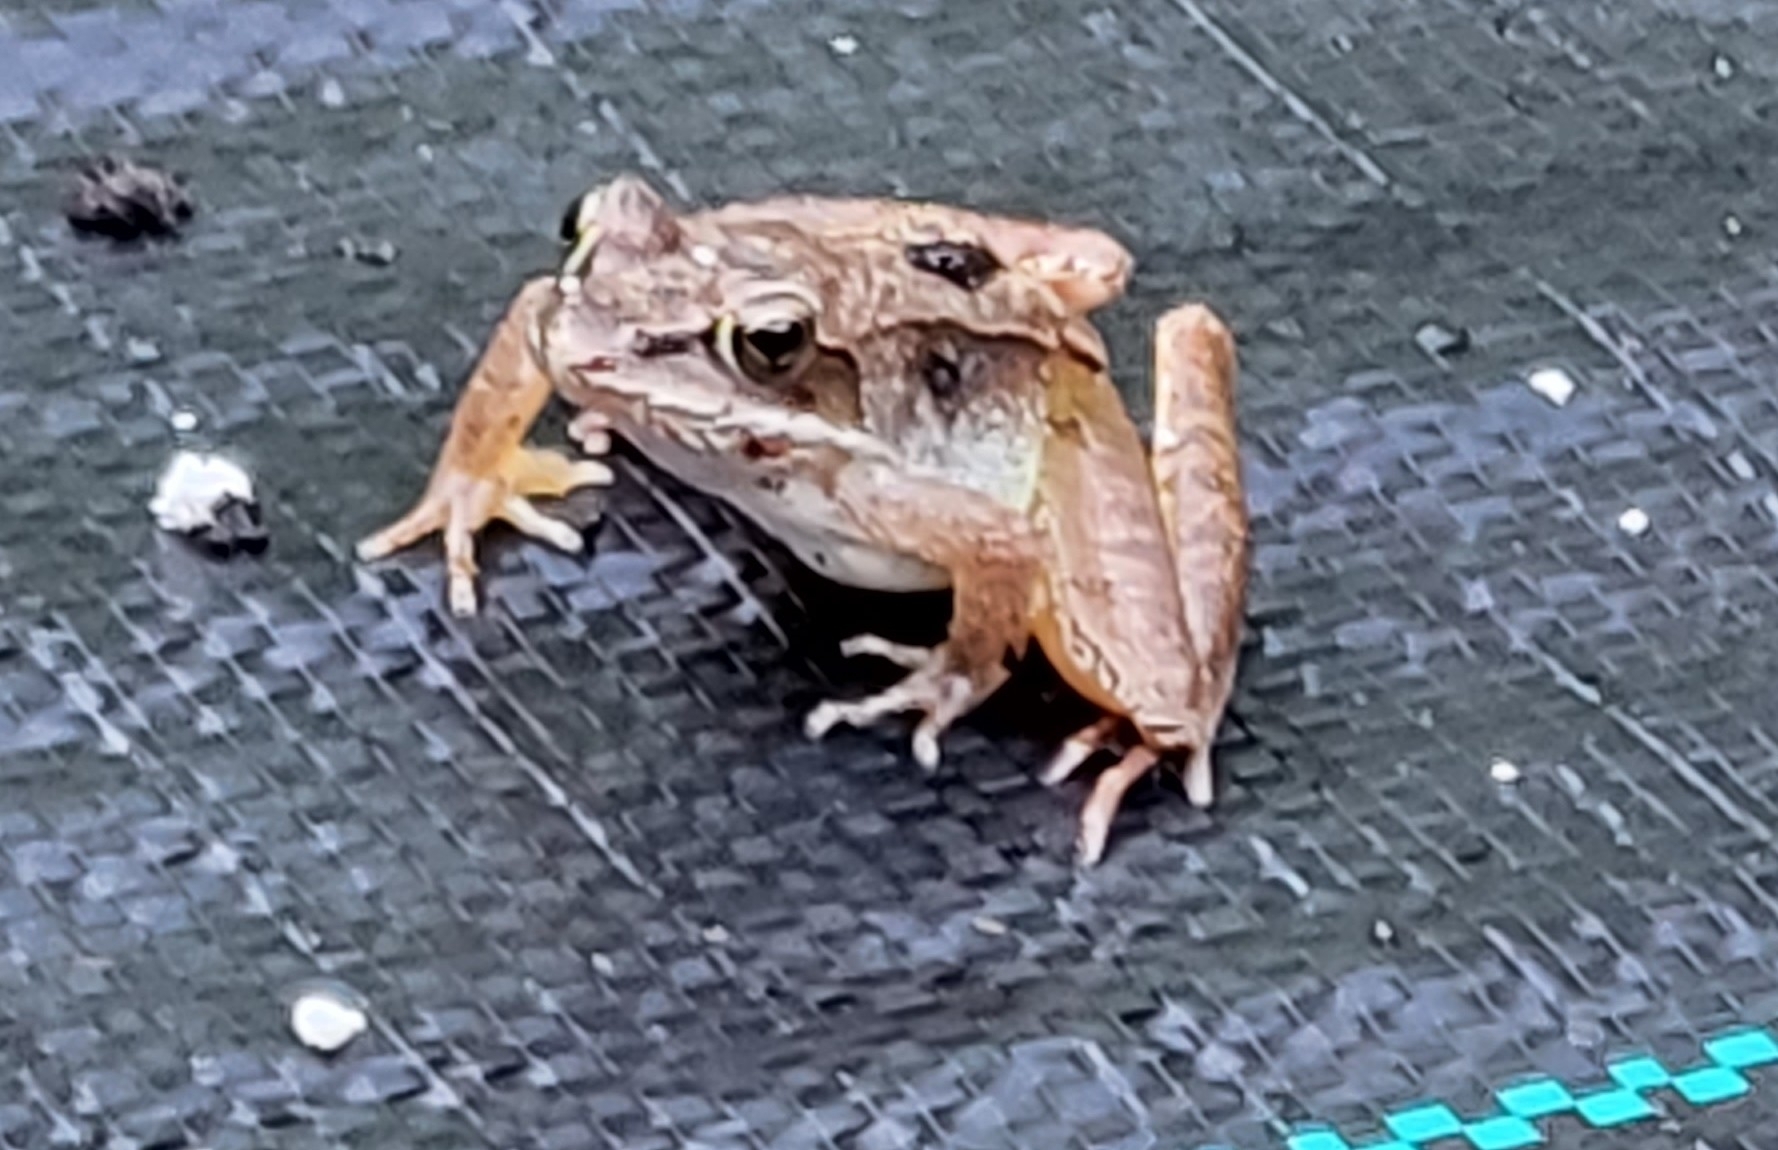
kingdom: Animalia
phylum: Chordata
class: Amphibia
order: Anura
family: Ranidae
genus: Lithobates
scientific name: Lithobates sylvaticus
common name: Wood frog
